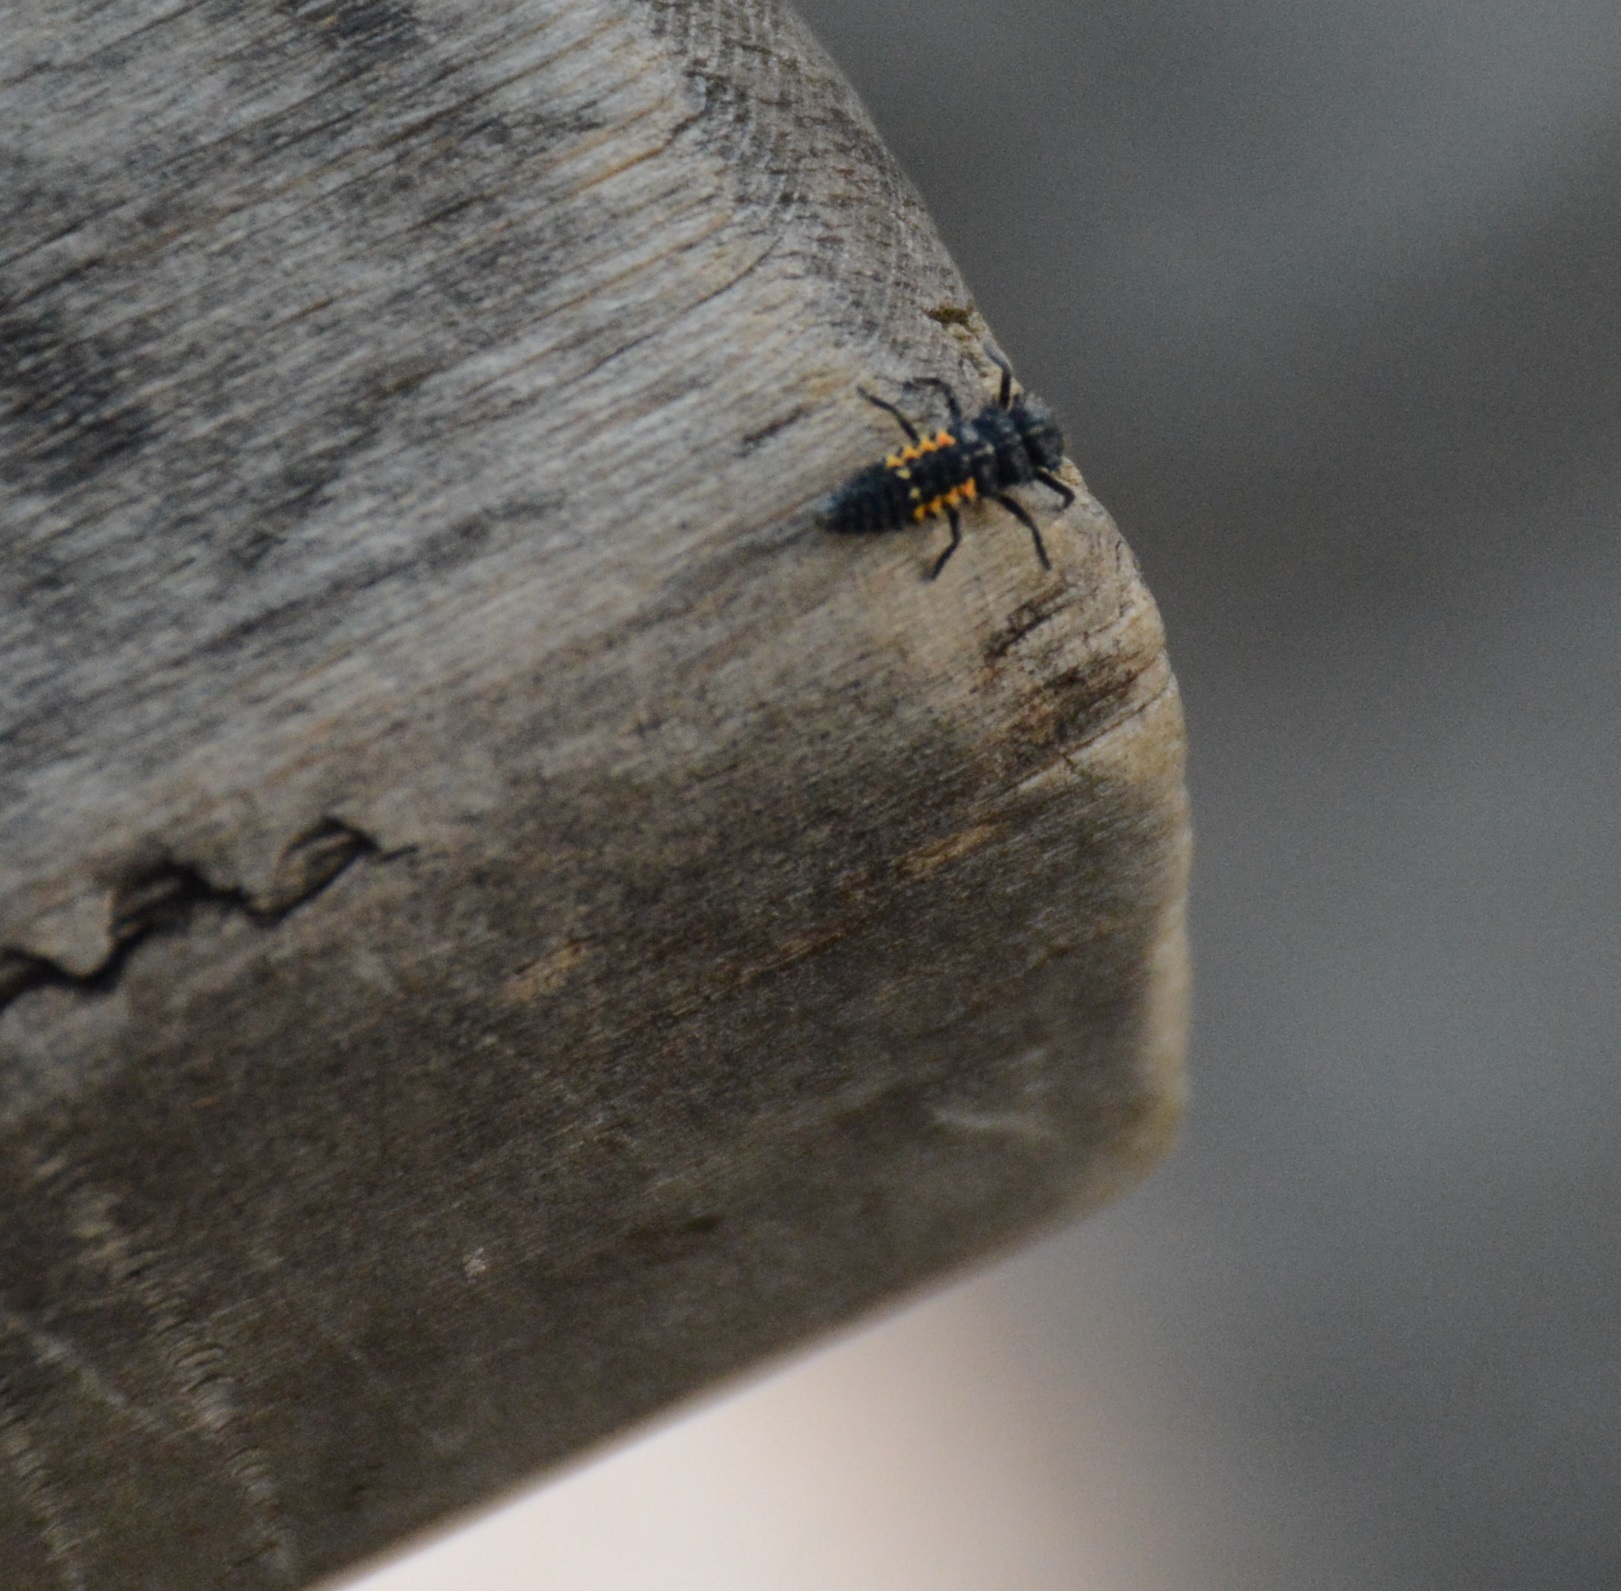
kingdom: Animalia
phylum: Arthropoda
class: Insecta
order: Coleoptera
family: Coccinellidae
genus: Harmonia
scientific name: Harmonia quadripunctata
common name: Cream-streaked ladybird
